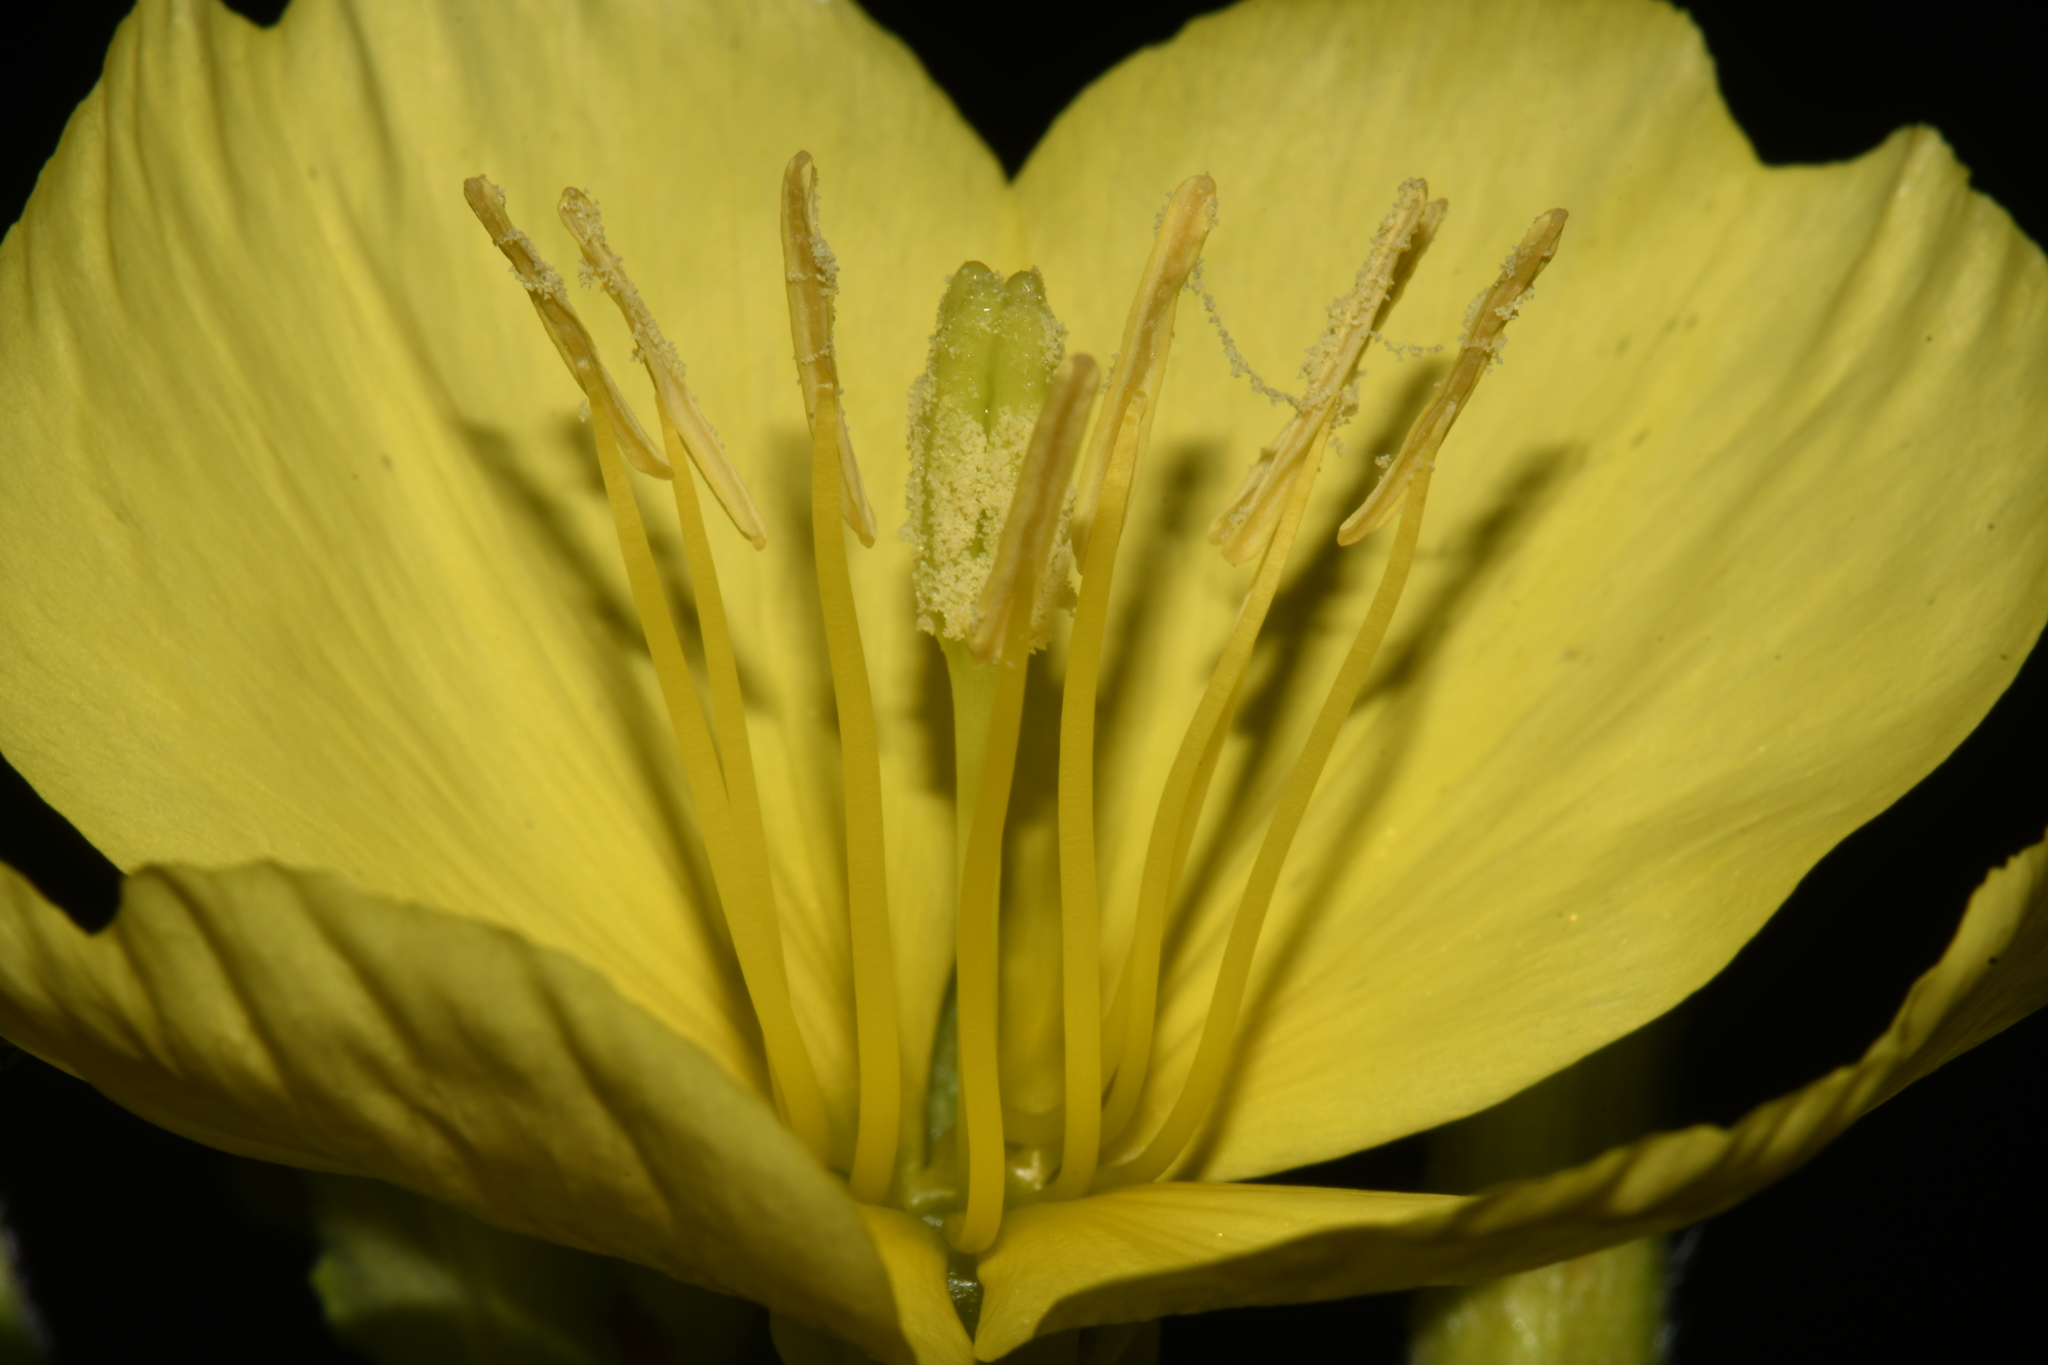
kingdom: Plantae
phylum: Tracheophyta
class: Magnoliopsida
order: Myrtales
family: Onagraceae
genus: Oenothera
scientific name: Oenothera biennis
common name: Common evening-primrose
